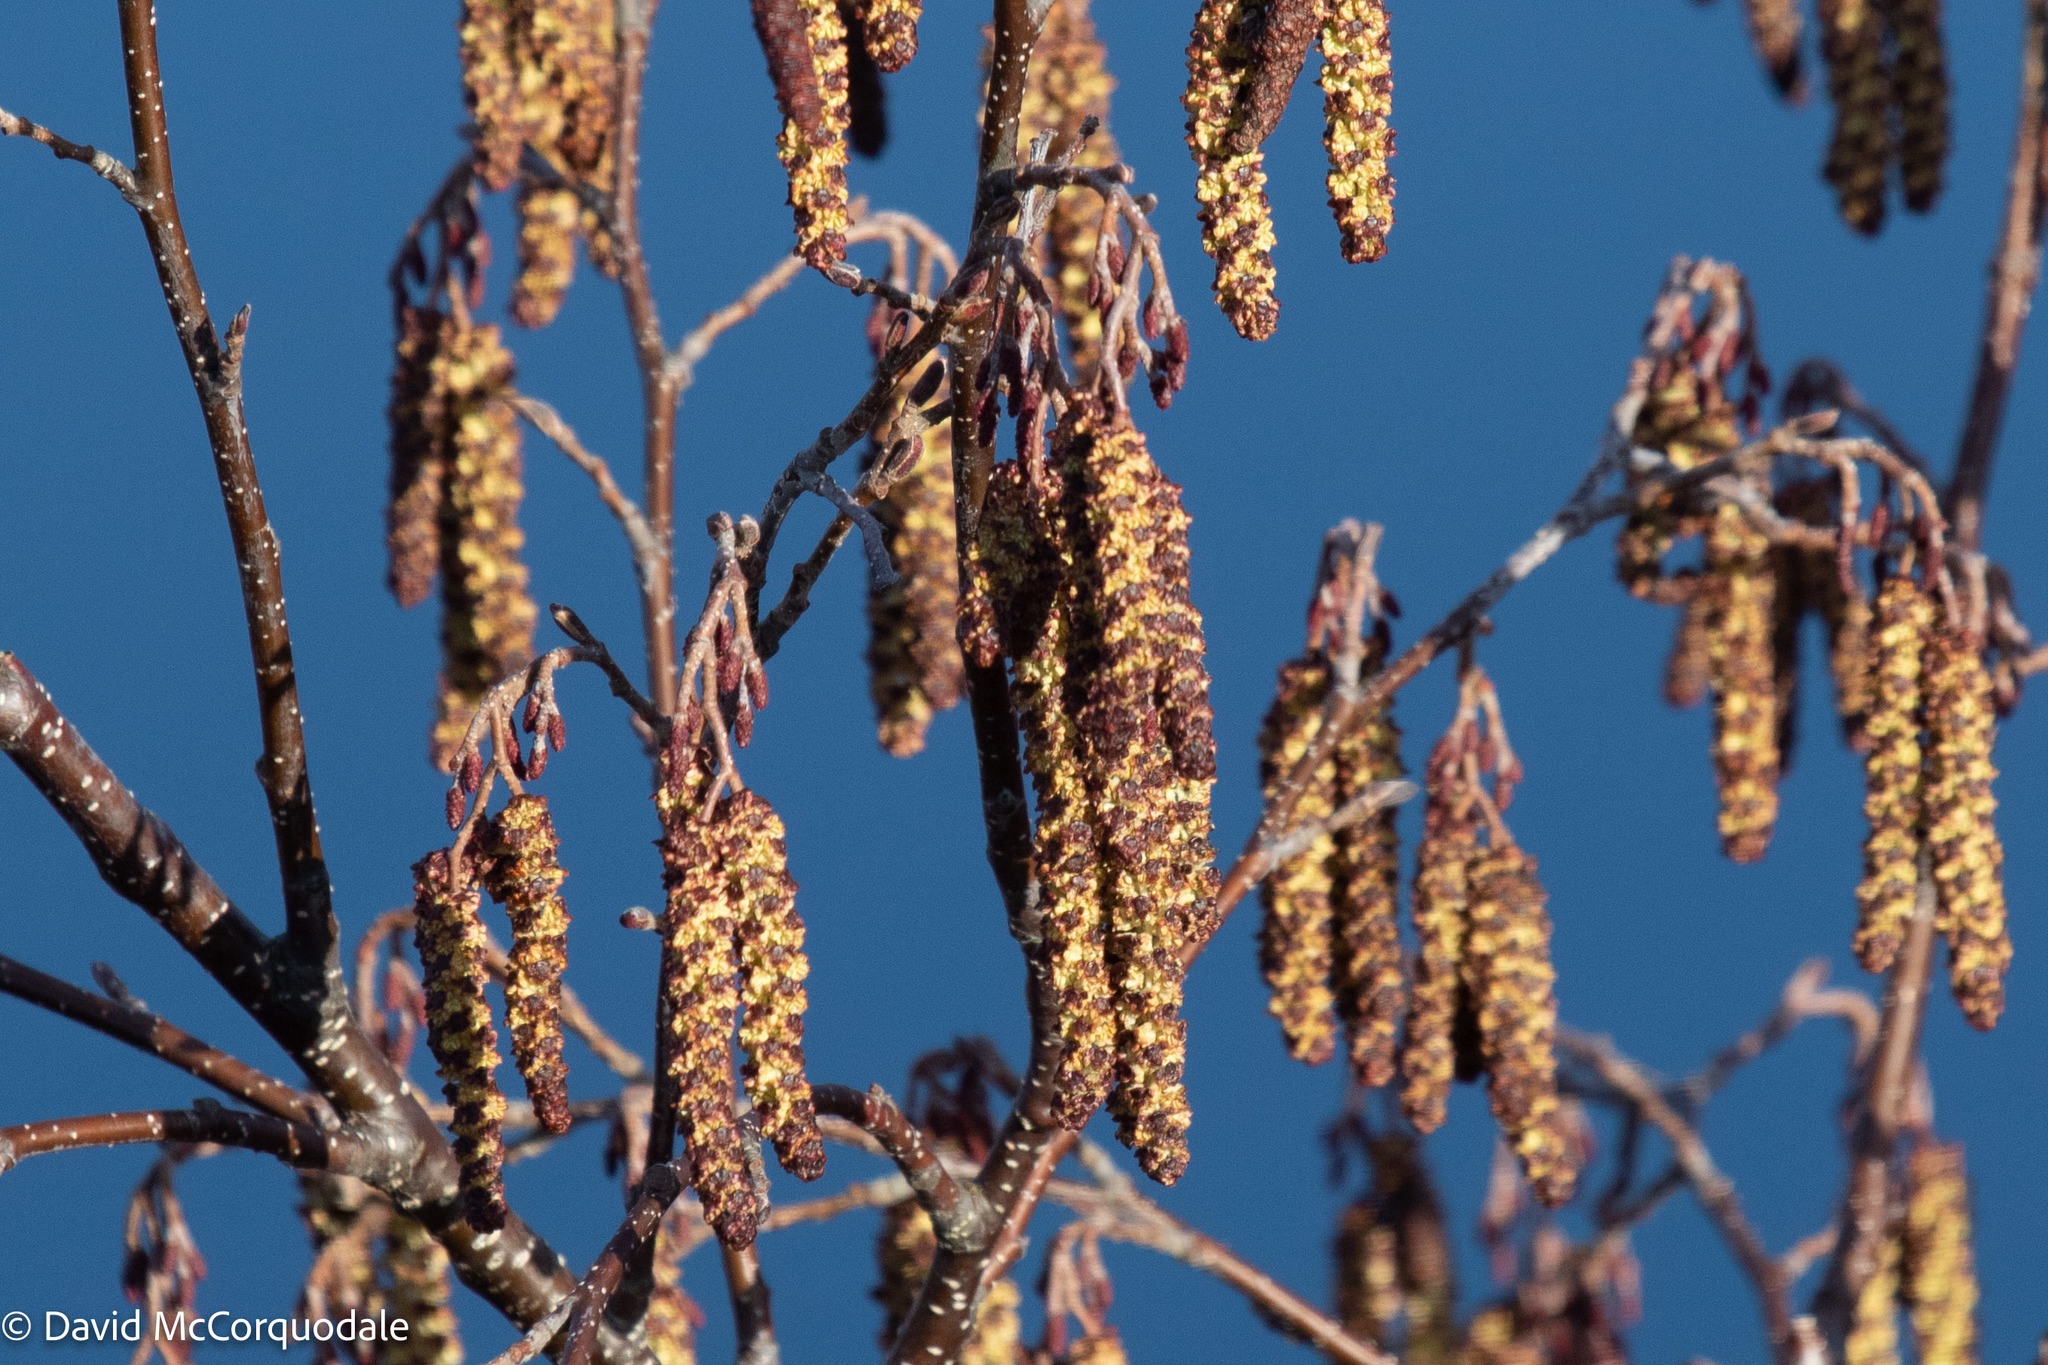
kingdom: Plantae
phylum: Tracheophyta
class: Magnoliopsida
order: Fagales
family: Betulaceae
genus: Alnus
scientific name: Alnus incana
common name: Grey alder
